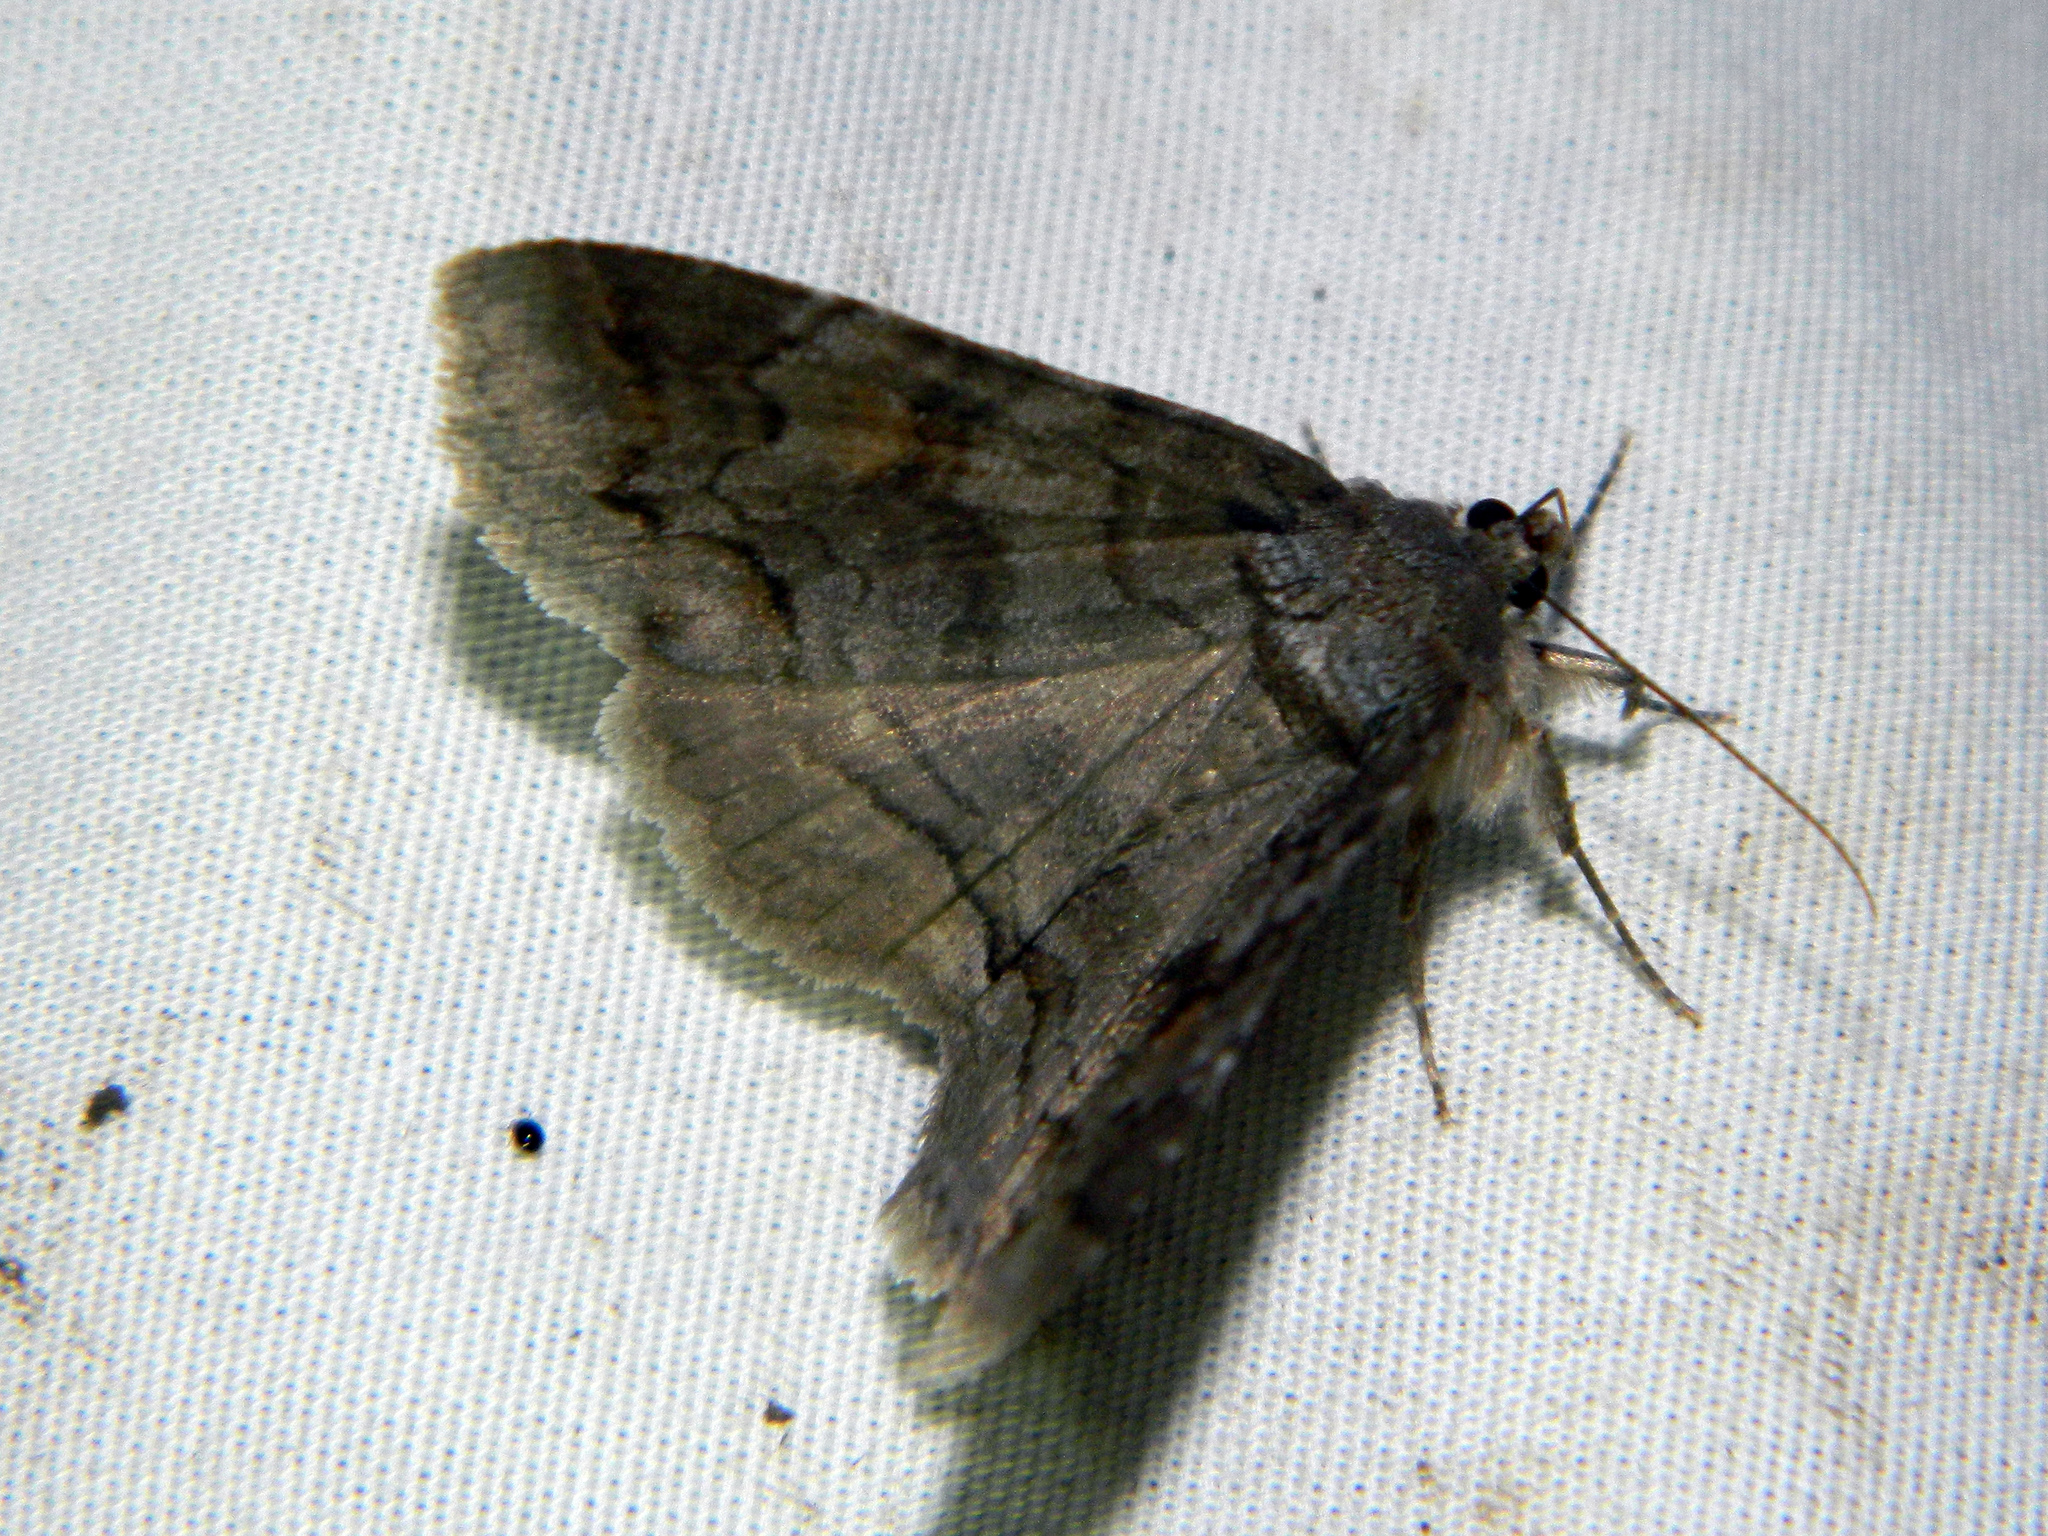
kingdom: Animalia
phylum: Arthropoda
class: Insecta
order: Lepidoptera
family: Erebidae
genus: Zale
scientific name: Zale duplicata
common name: Pine false looper moth
